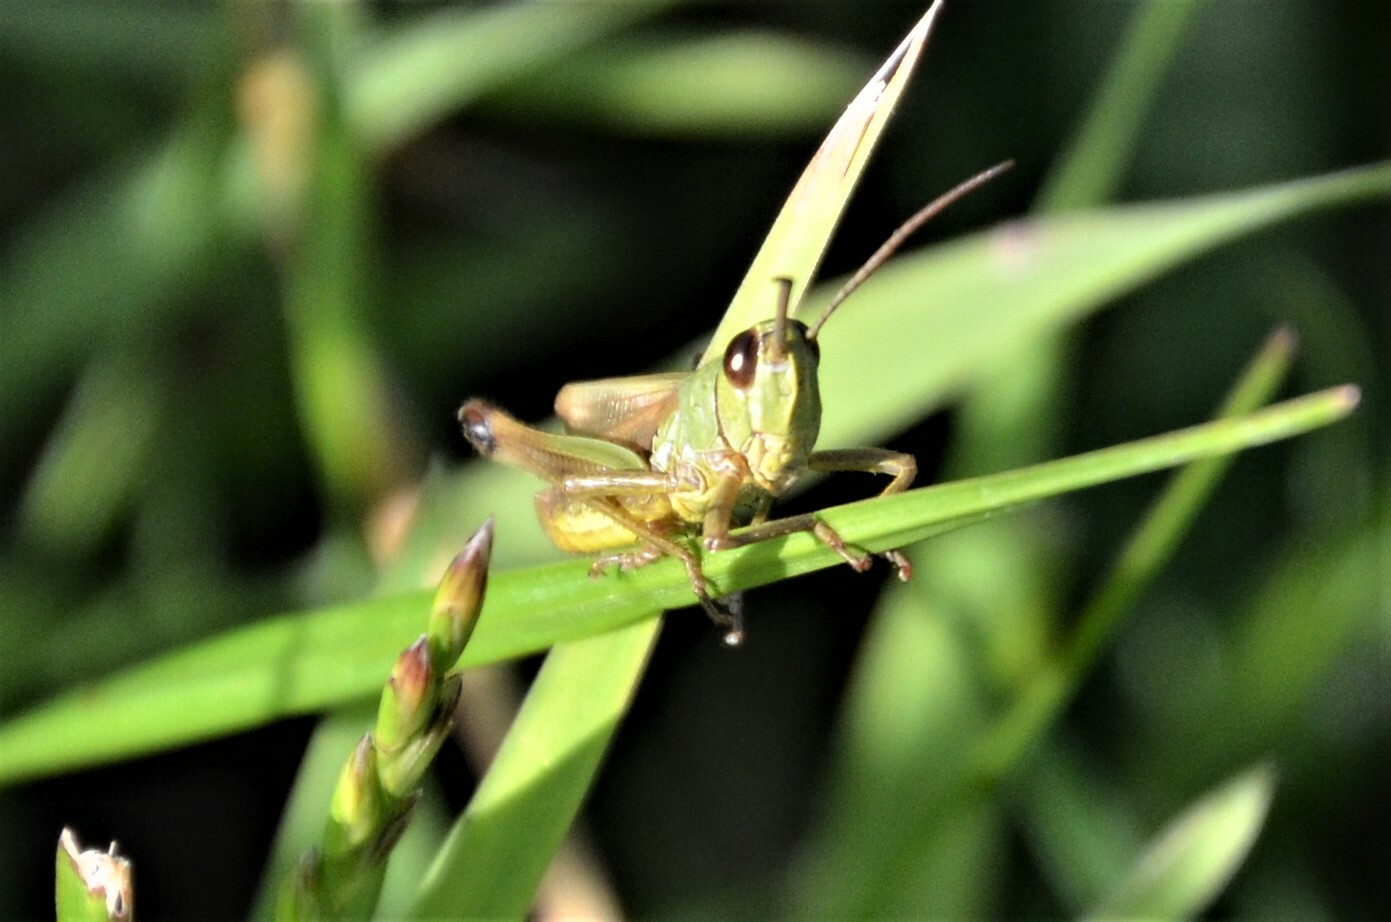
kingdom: Animalia
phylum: Arthropoda
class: Insecta
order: Orthoptera
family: Acrididae
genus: Pseudochorthippus
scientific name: Pseudochorthippus parallelus
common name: Meadow grasshopper
